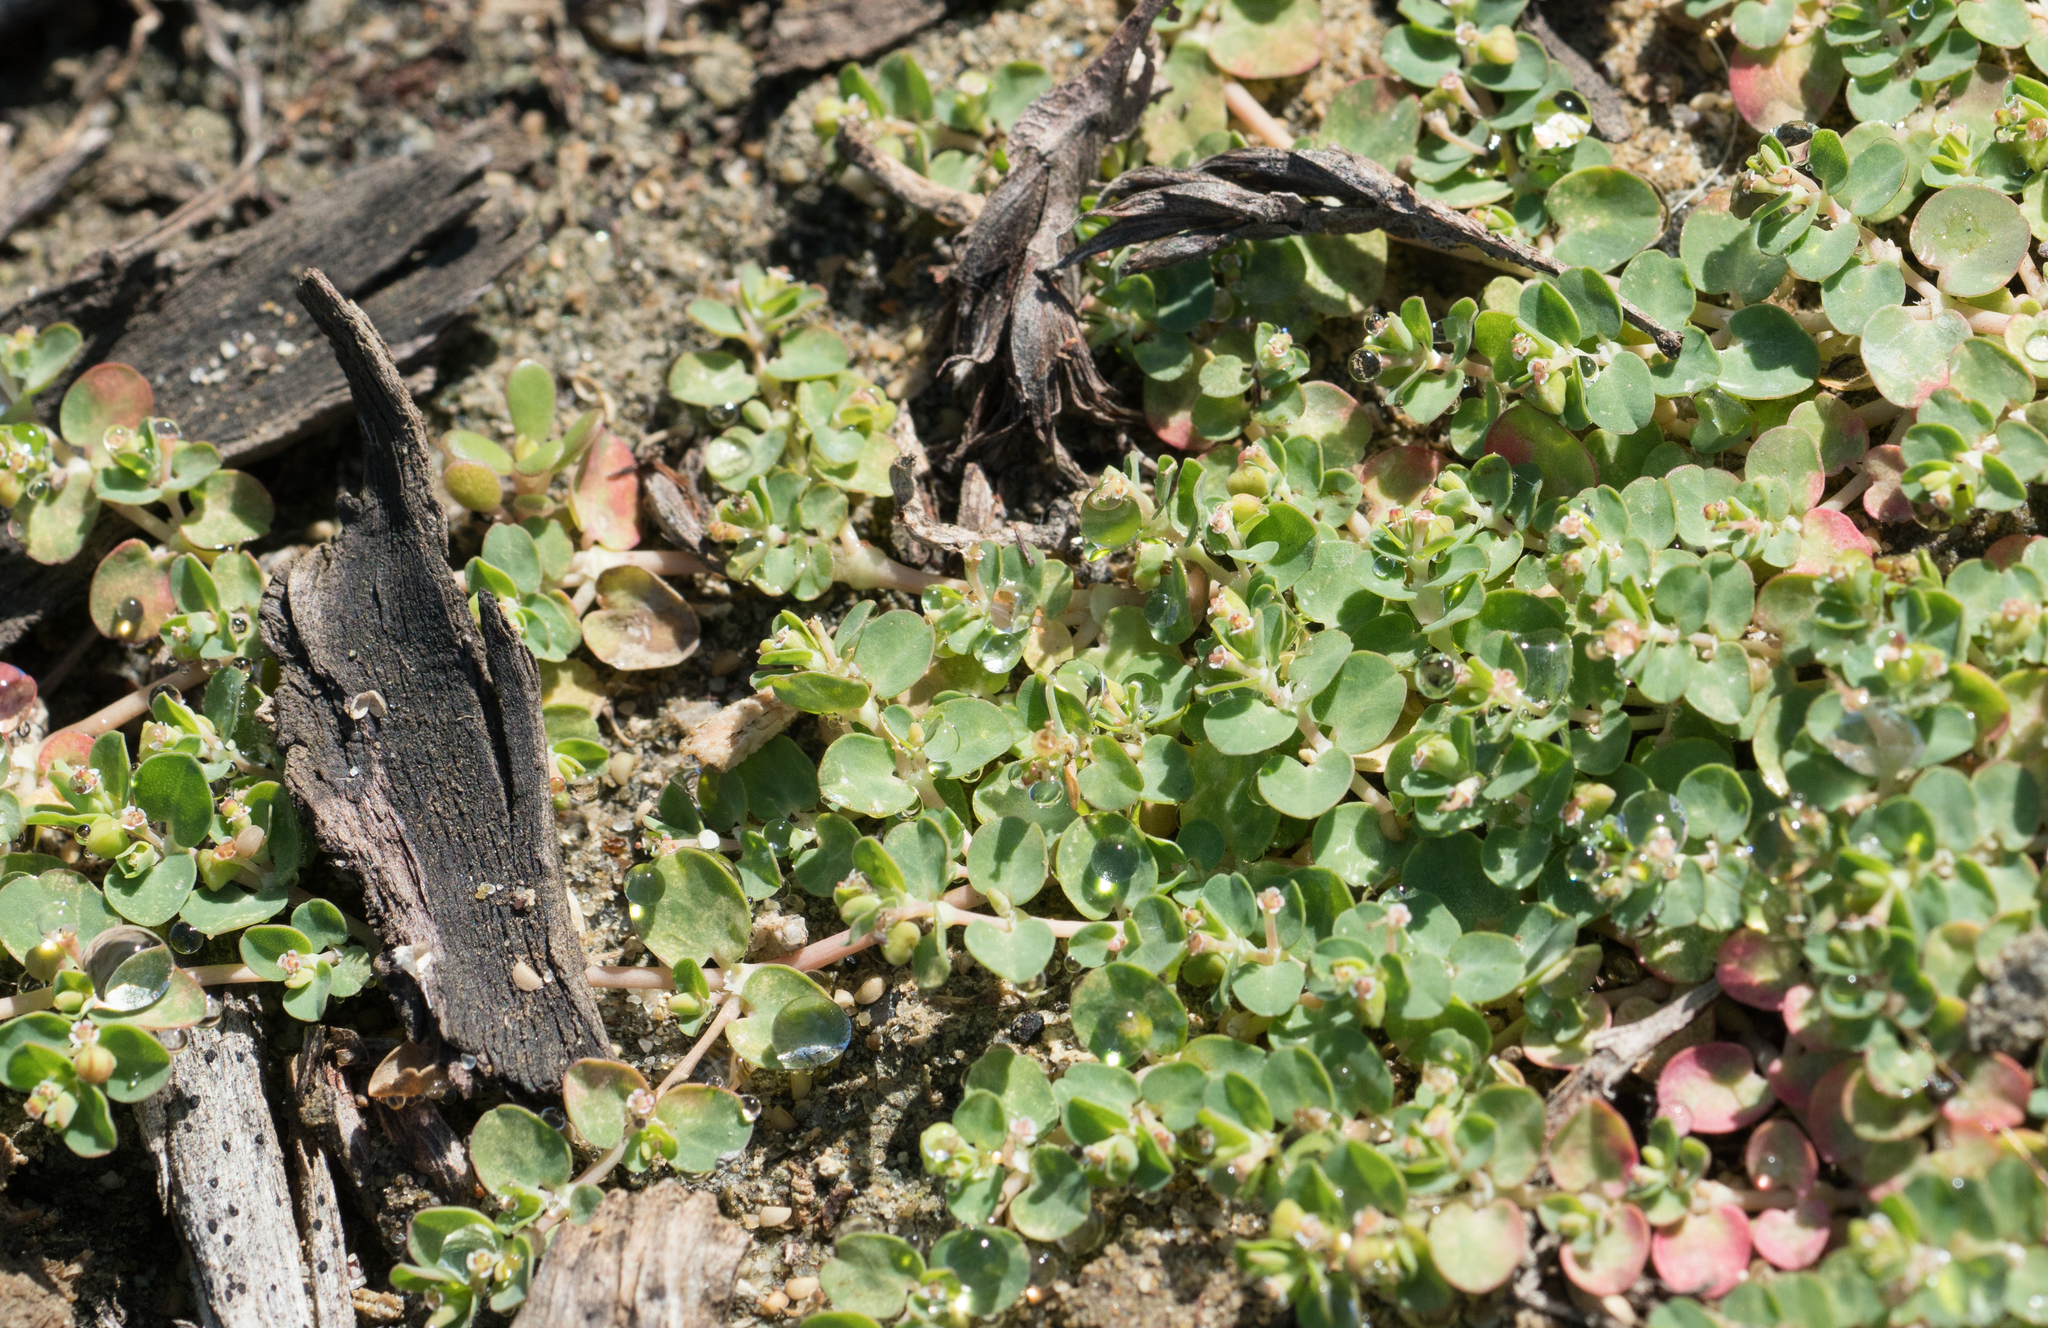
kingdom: Plantae
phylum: Tracheophyta
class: Magnoliopsida
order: Malpighiales
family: Euphorbiaceae
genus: Euphorbia
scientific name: Euphorbia serpens
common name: Matted sandmat
